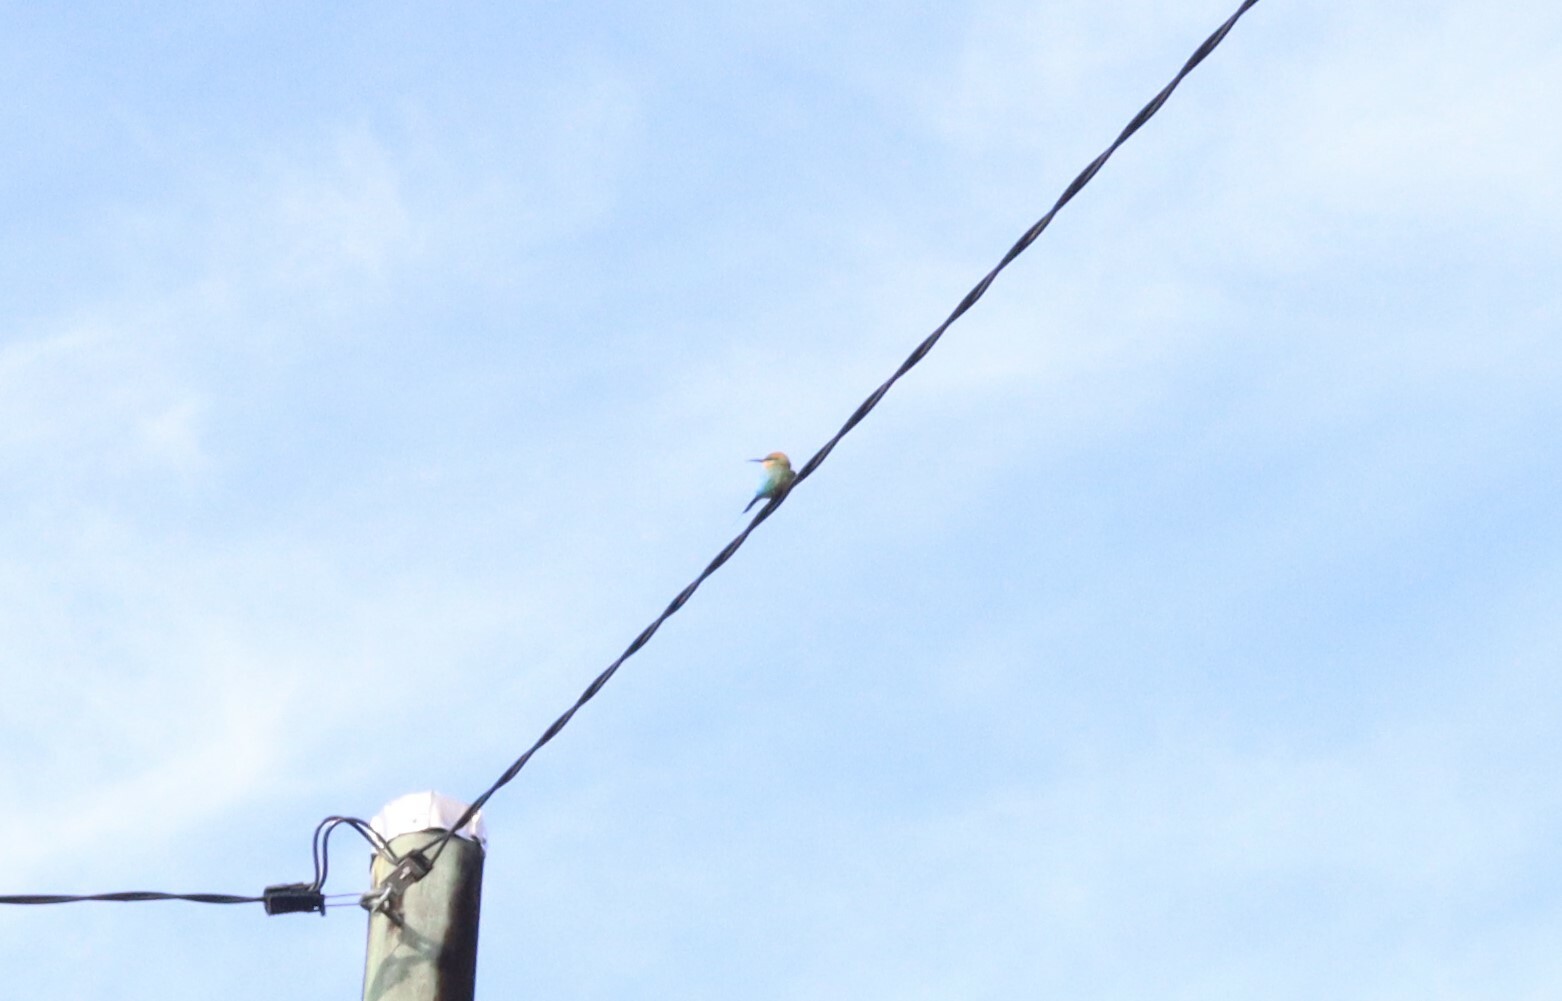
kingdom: Animalia
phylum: Chordata
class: Aves
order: Coraciiformes
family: Meropidae
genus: Merops
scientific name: Merops ornatus
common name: Rainbow bee-eater
